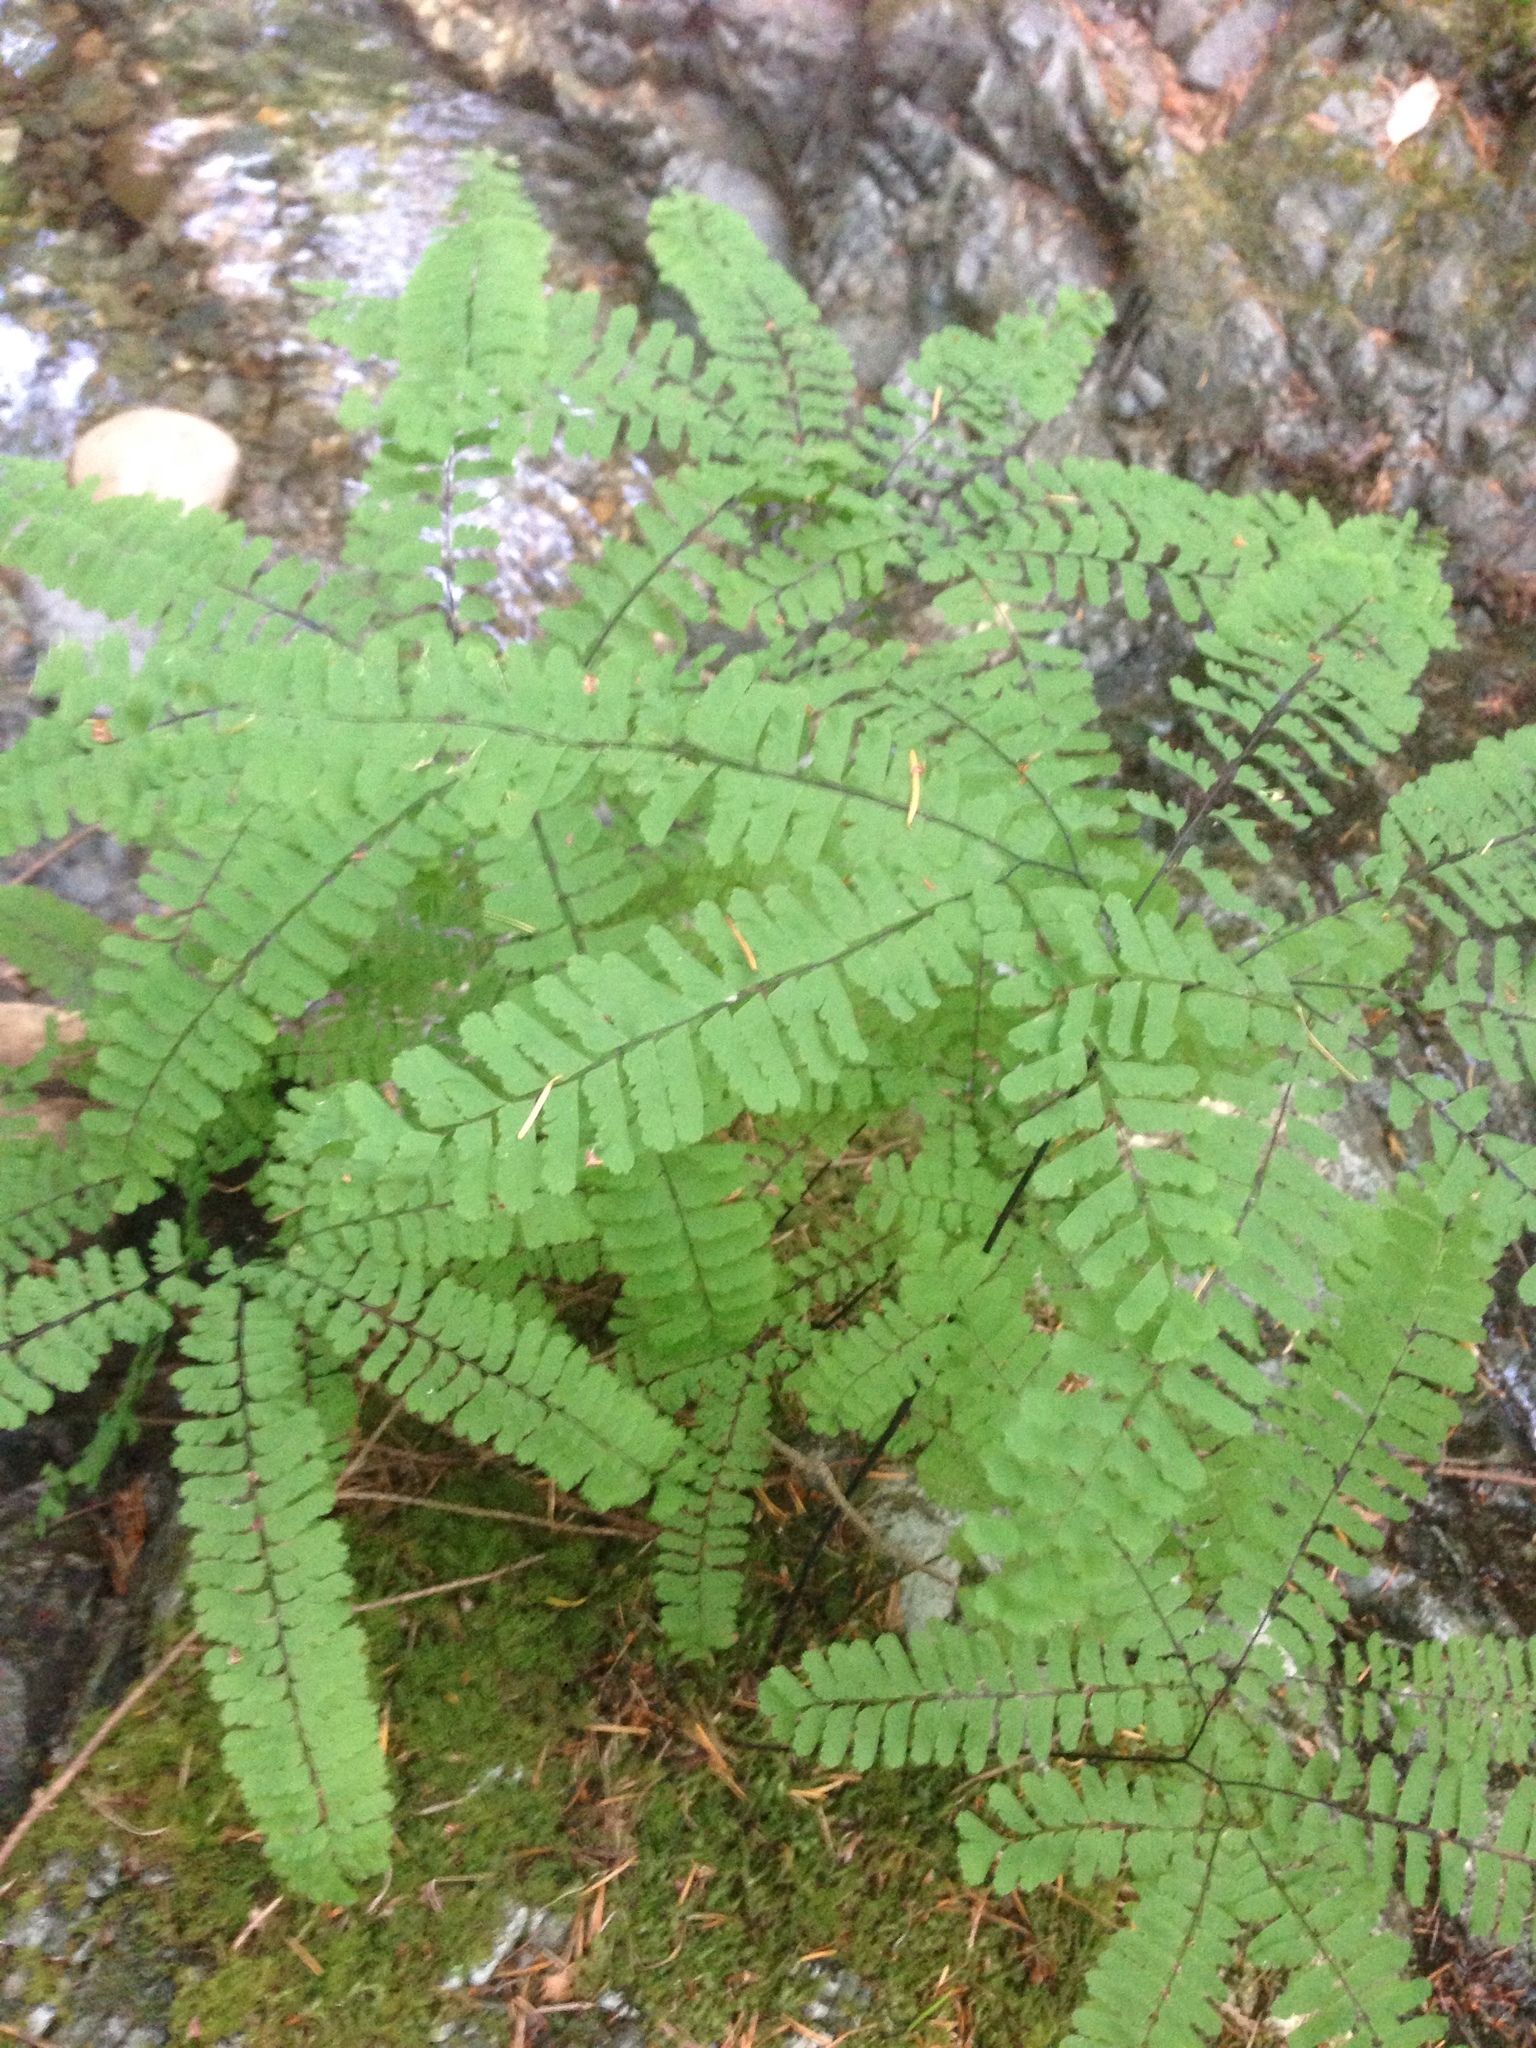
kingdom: Plantae
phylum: Tracheophyta
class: Polypodiopsida
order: Polypodiales
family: Pteridaceae
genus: Adiantum
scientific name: Adiantum aleuticum
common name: Aleutian maidenhair fern
